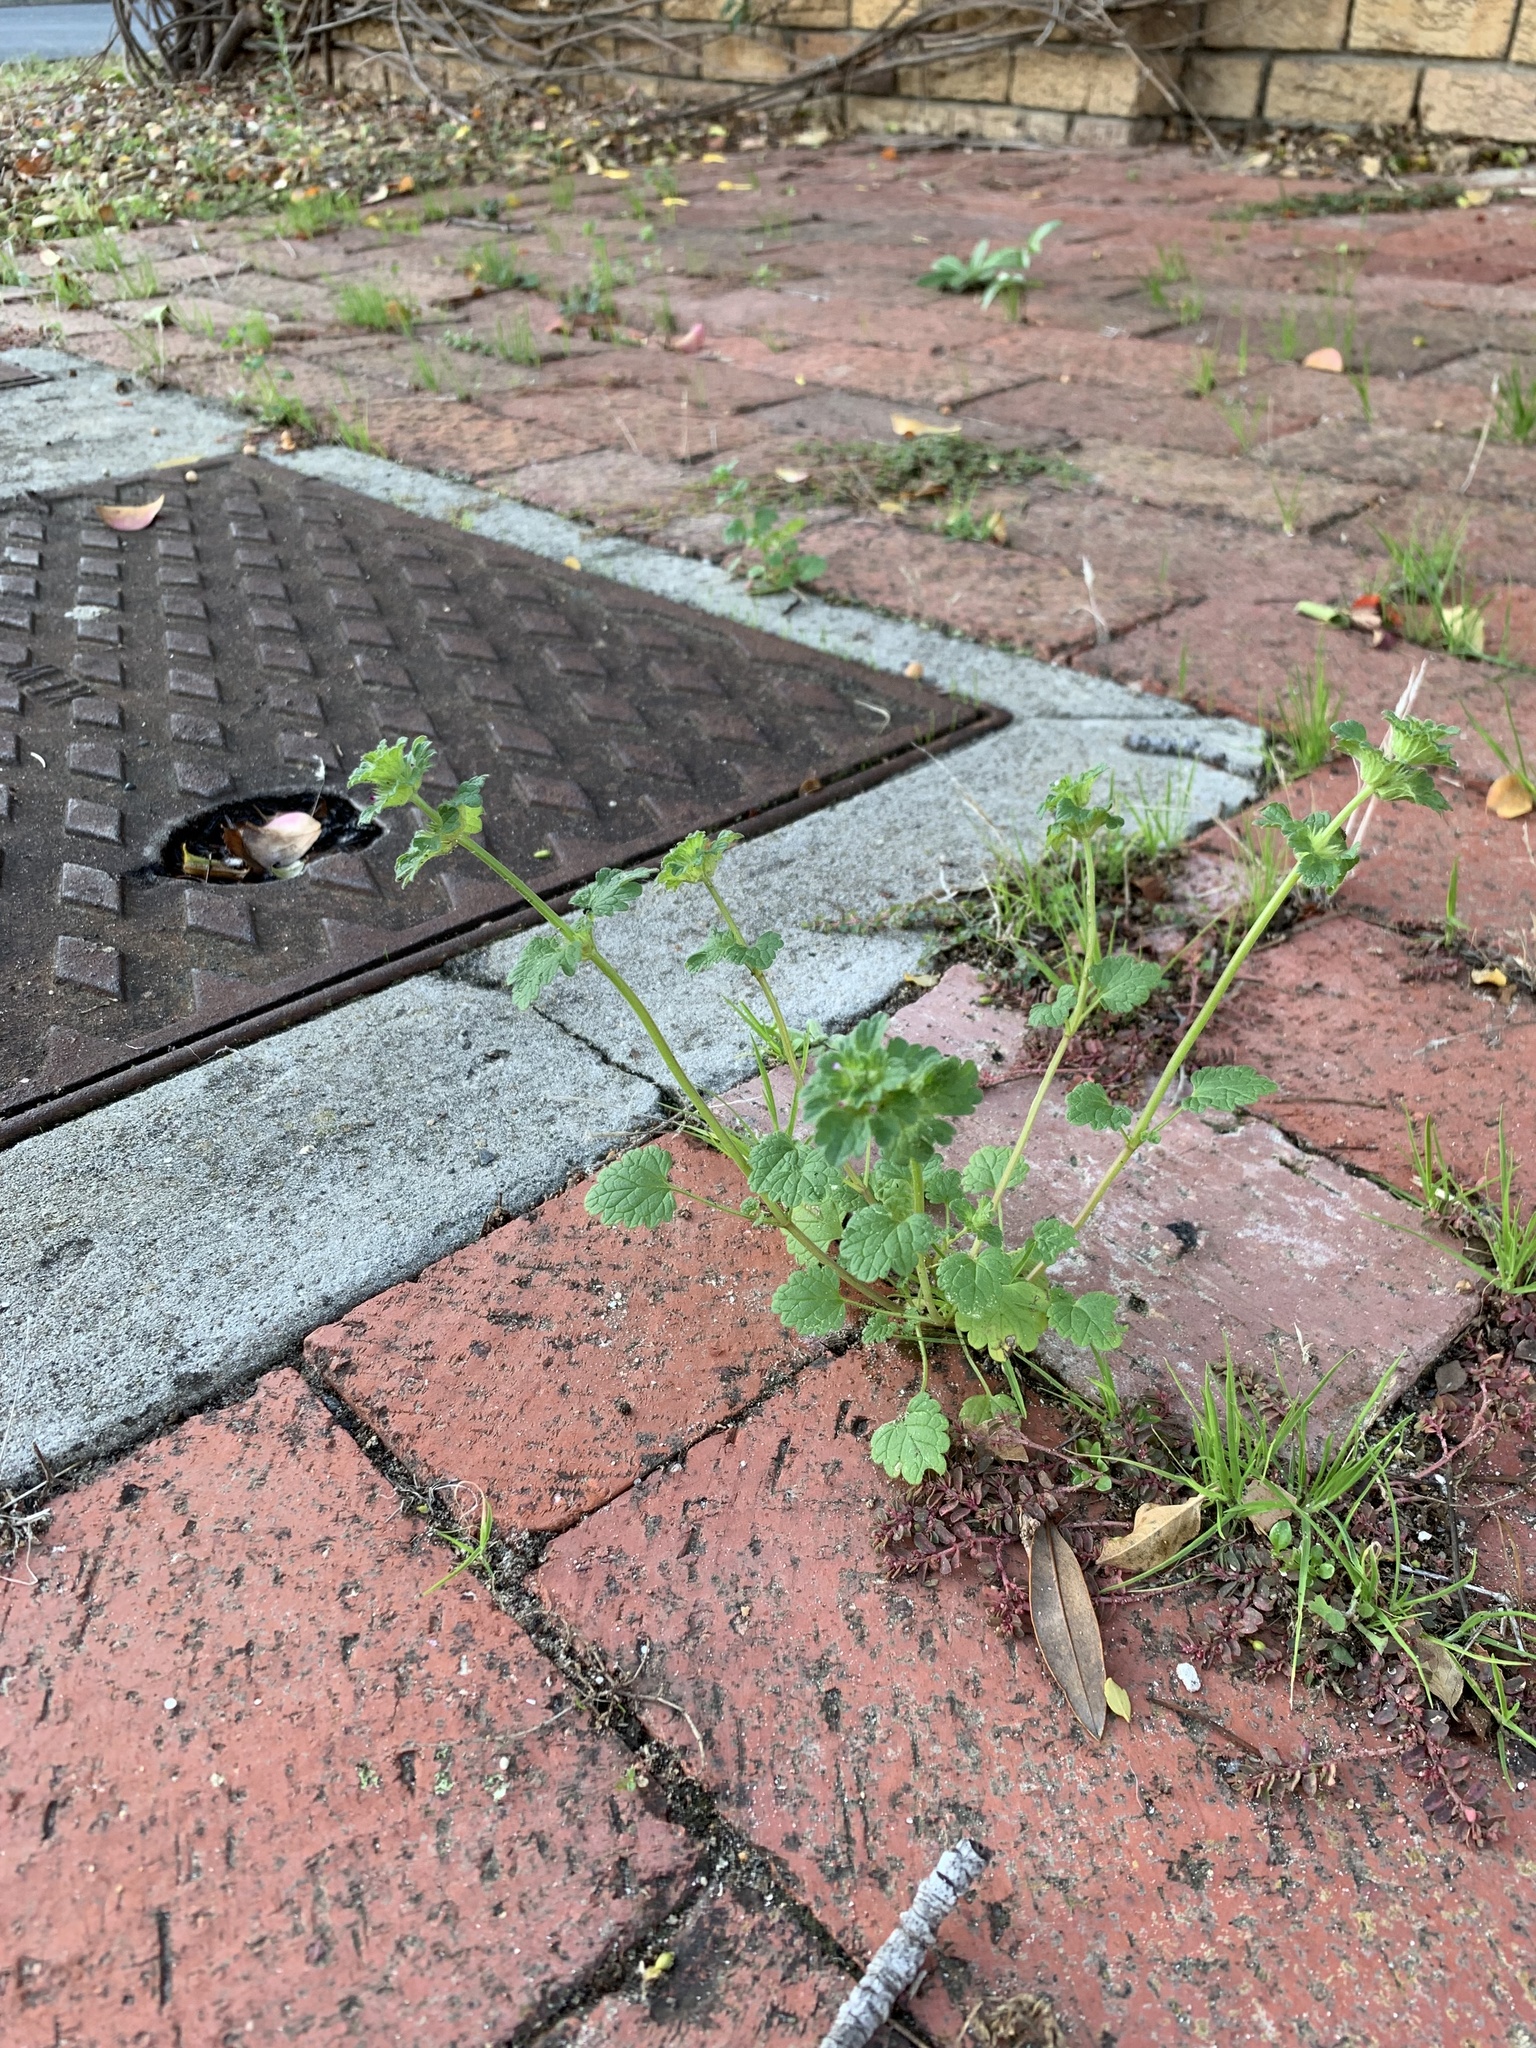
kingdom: Plantae
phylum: Tracheophyta
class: Magnoliopsida
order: Lamiales
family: Lamiaceae
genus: Lamium
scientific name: Lamium amplexicaule
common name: Henbit dead-nettle
